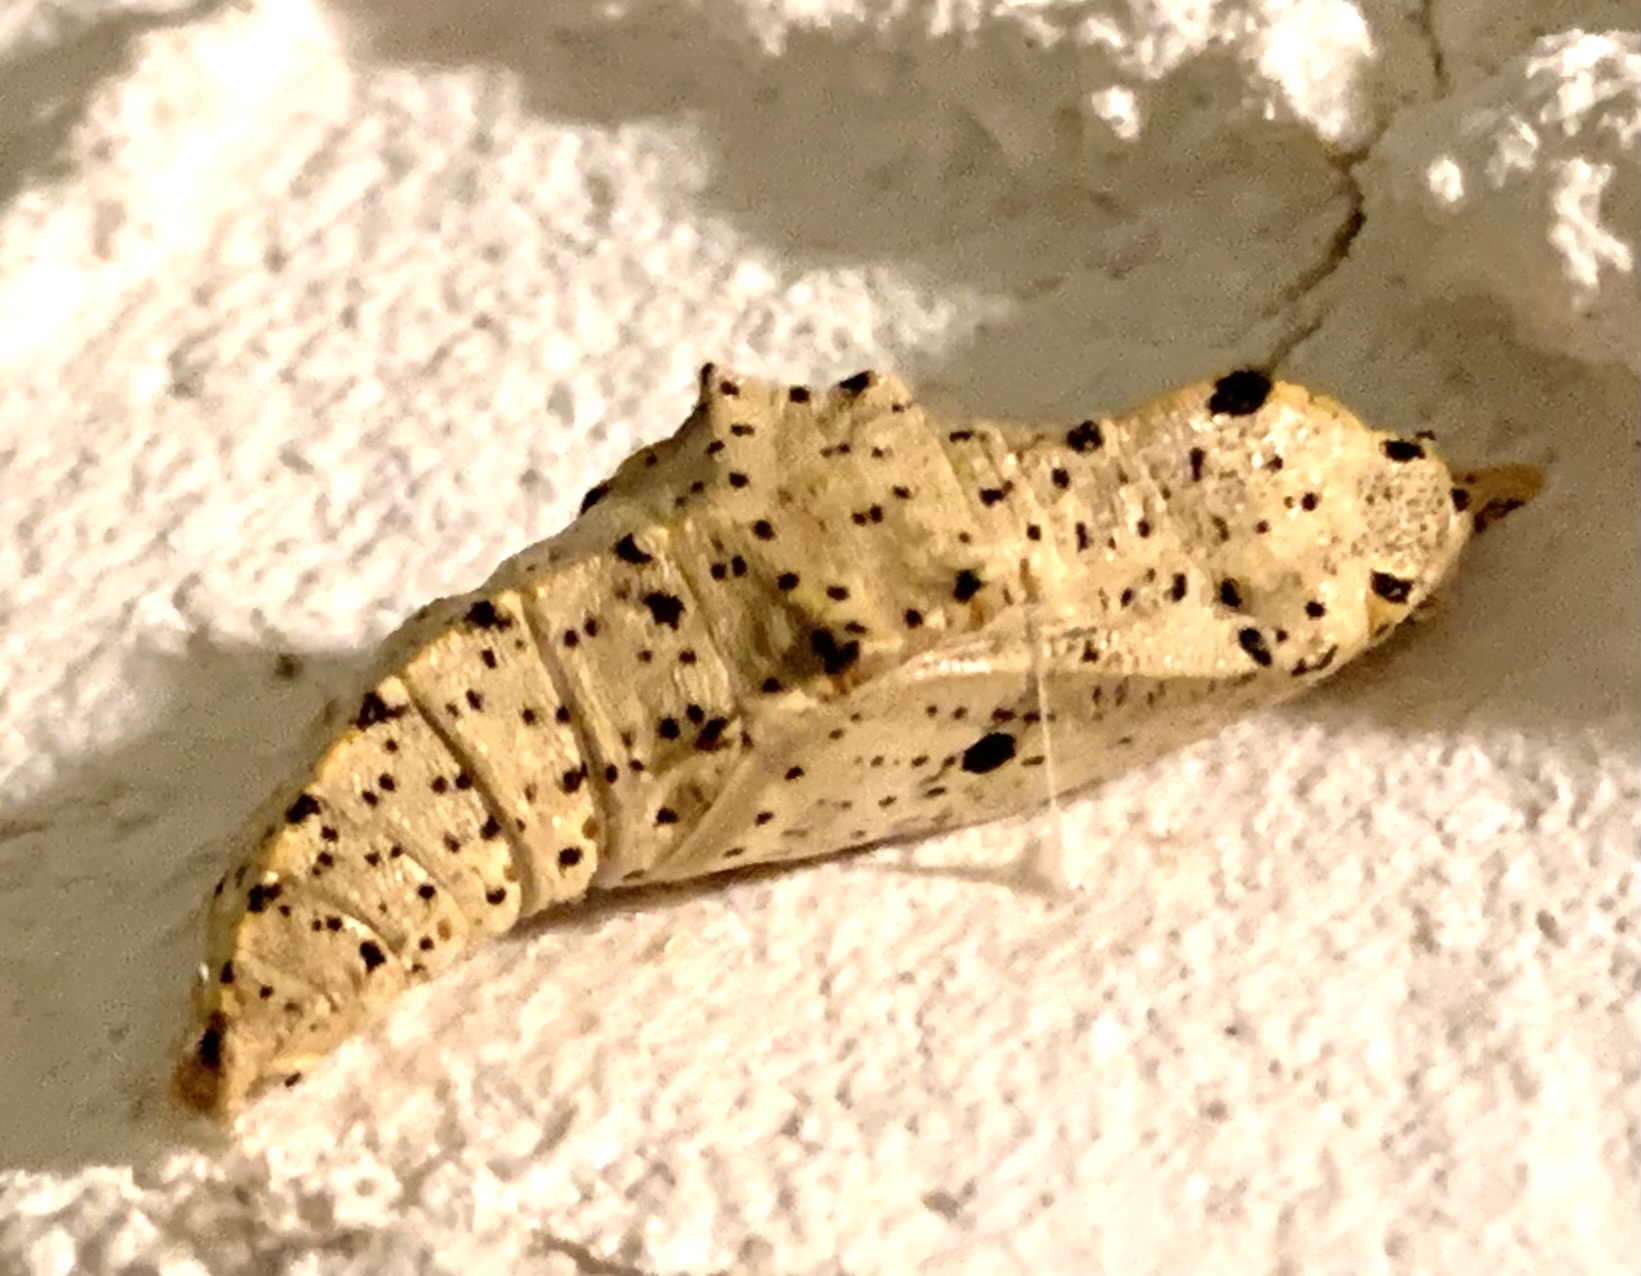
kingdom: Animalia
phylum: Arthropoda
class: Insecta
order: Lepidoptera
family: Pieridae
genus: Pieris
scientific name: Pieris brassicae
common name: Large white
